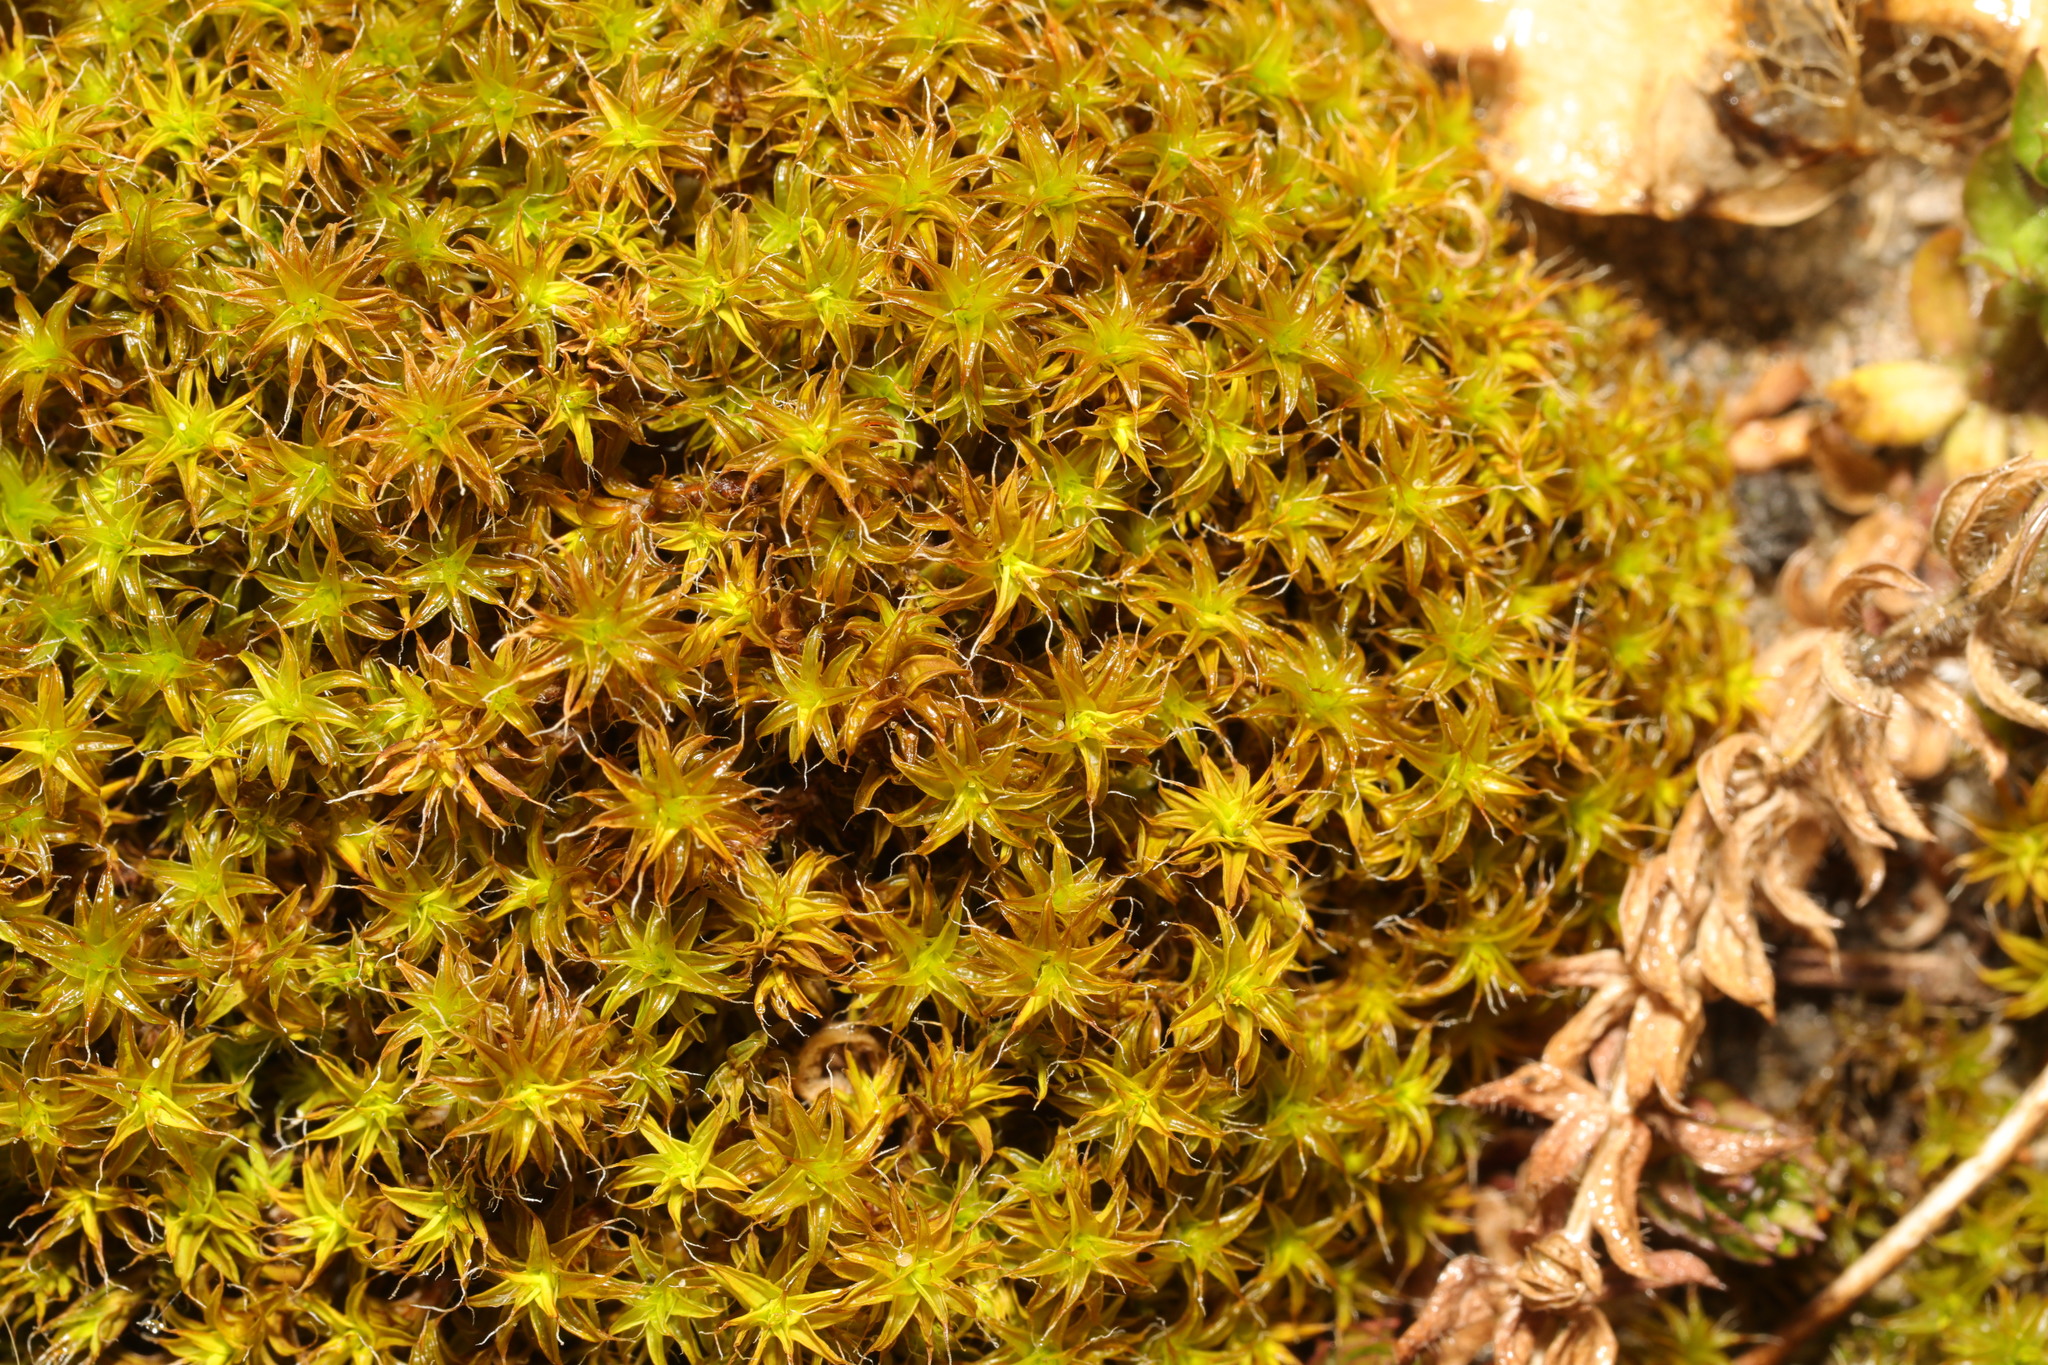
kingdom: Plantae
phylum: Bryophyta
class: Bryopsida
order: Pottiales
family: Pottiaceae
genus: Syntrichia
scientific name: Syntrichia ruralis
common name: Sidewalk screw moss
